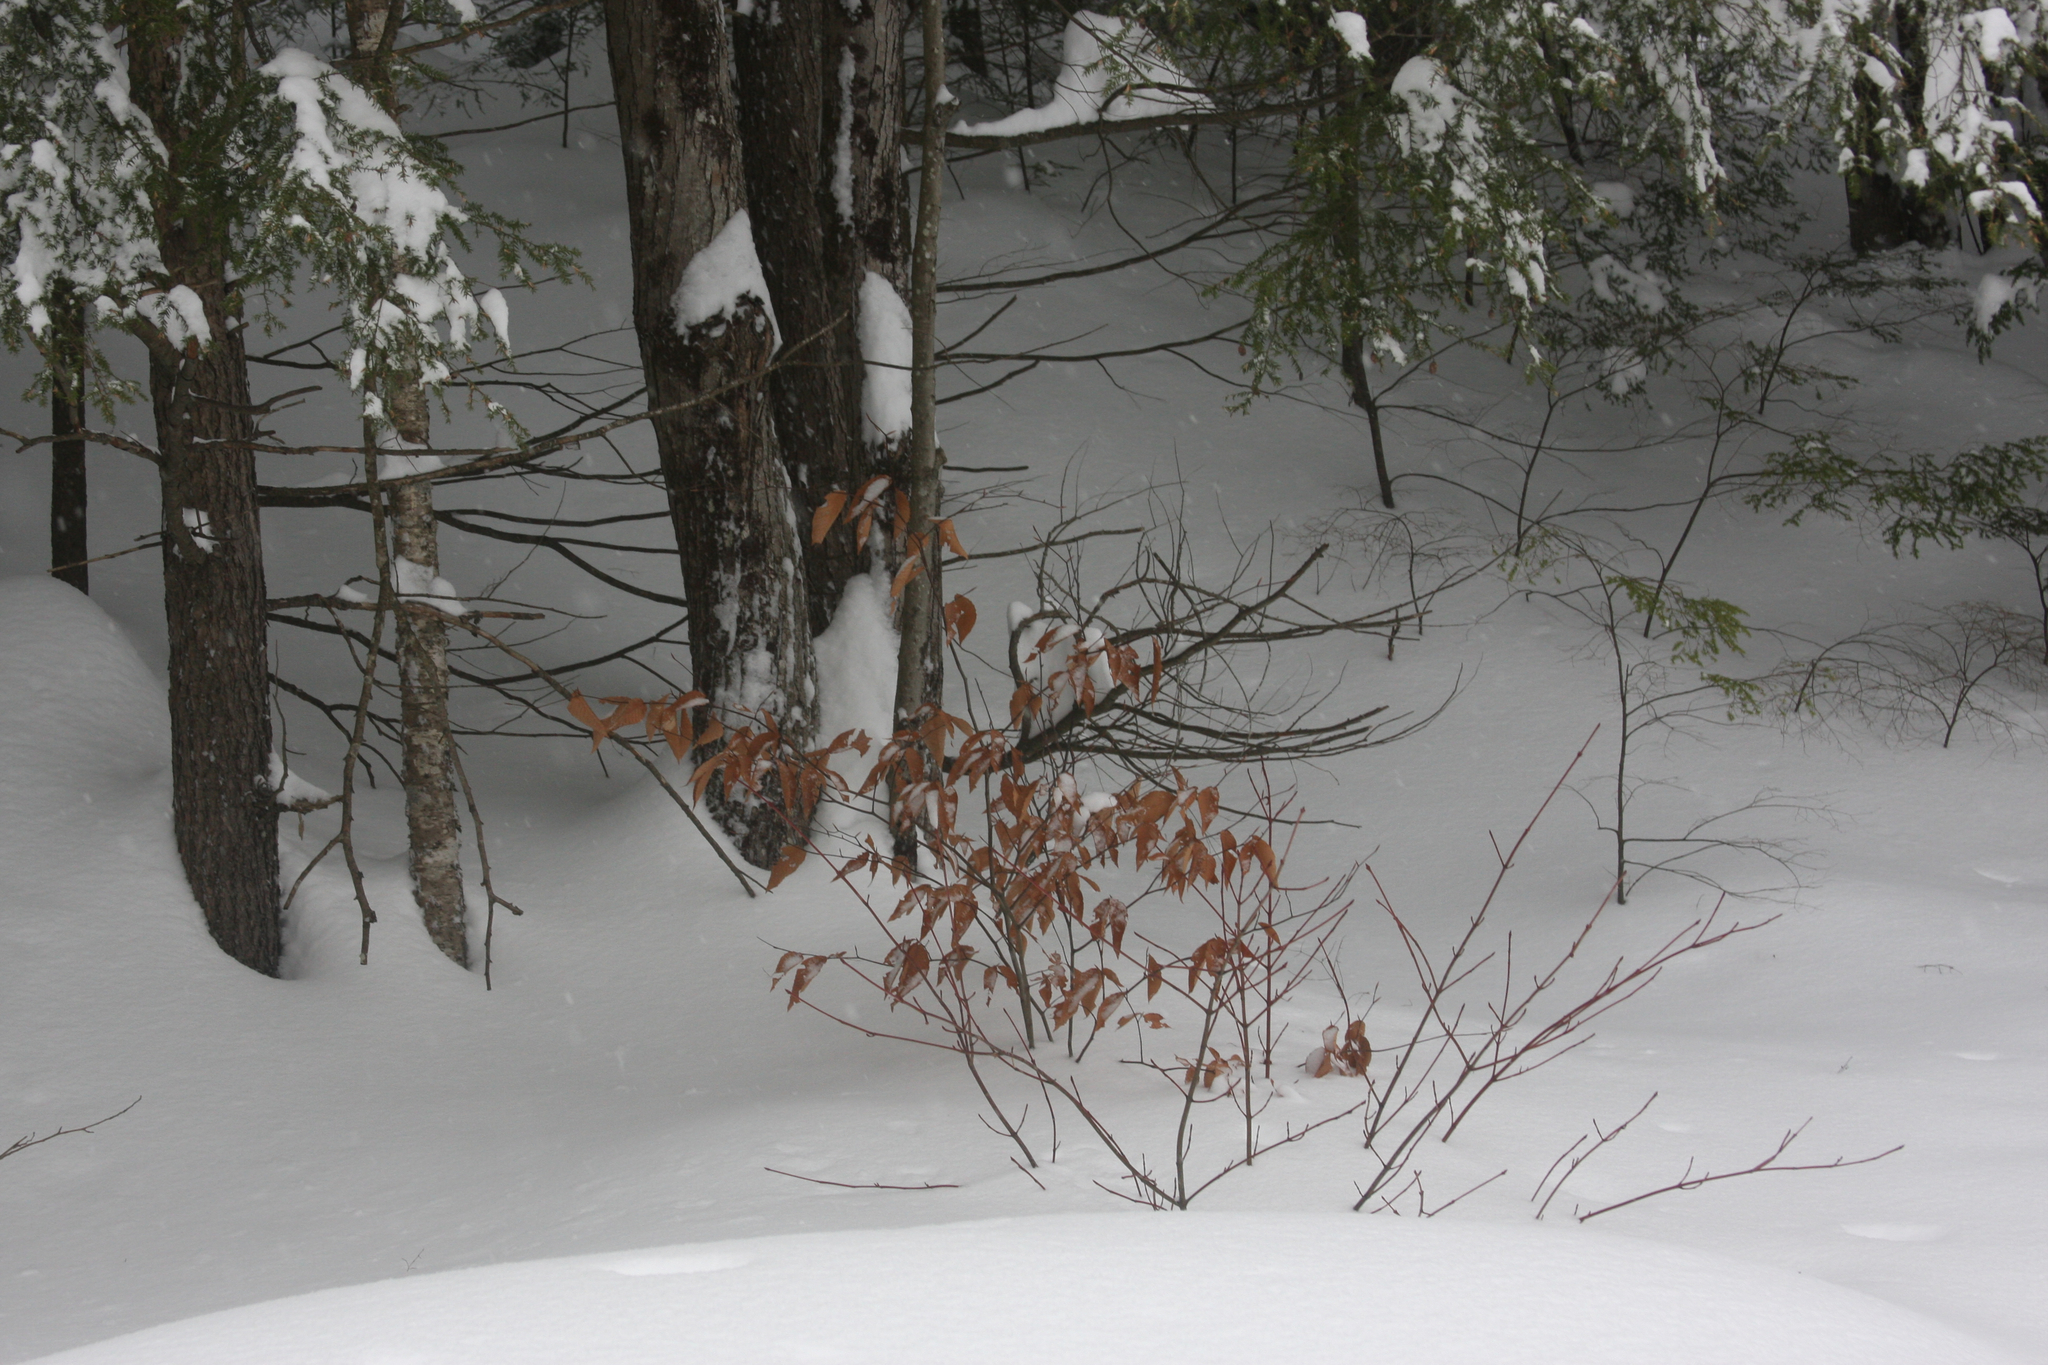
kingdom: Plantae
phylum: Tracheophyta
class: Magnoliopsida
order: Fagales
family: Fagaceae
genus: Fagus
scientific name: Fagus grandifolia
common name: American beech
